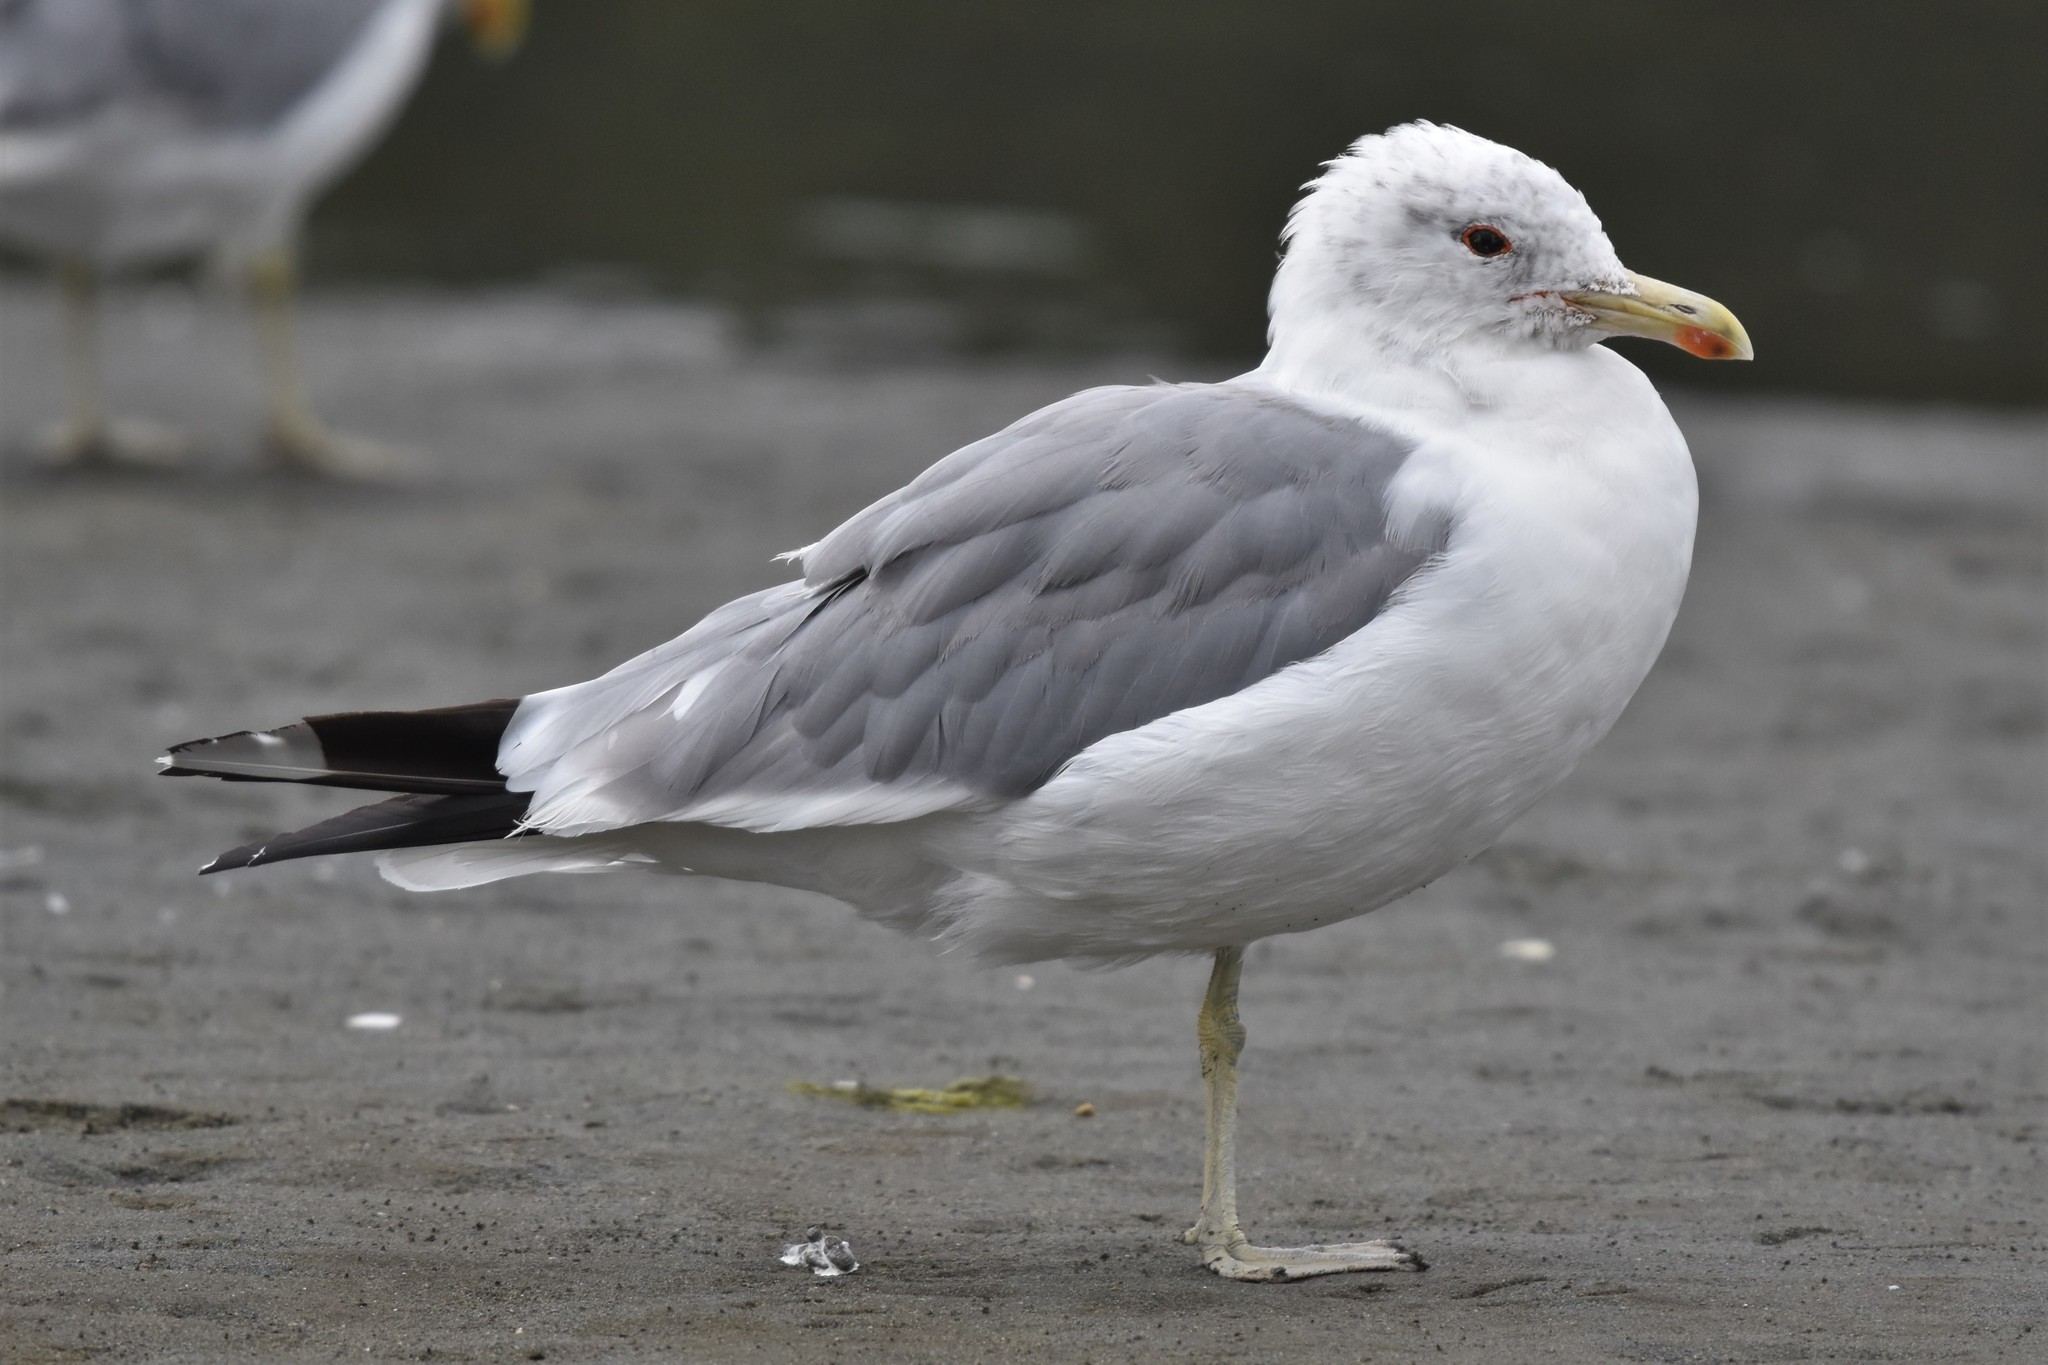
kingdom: Animalia
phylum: Chordata
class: Aves
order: Charadriiformes
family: Laridae
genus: Larus
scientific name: Larus californicus
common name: California gull
